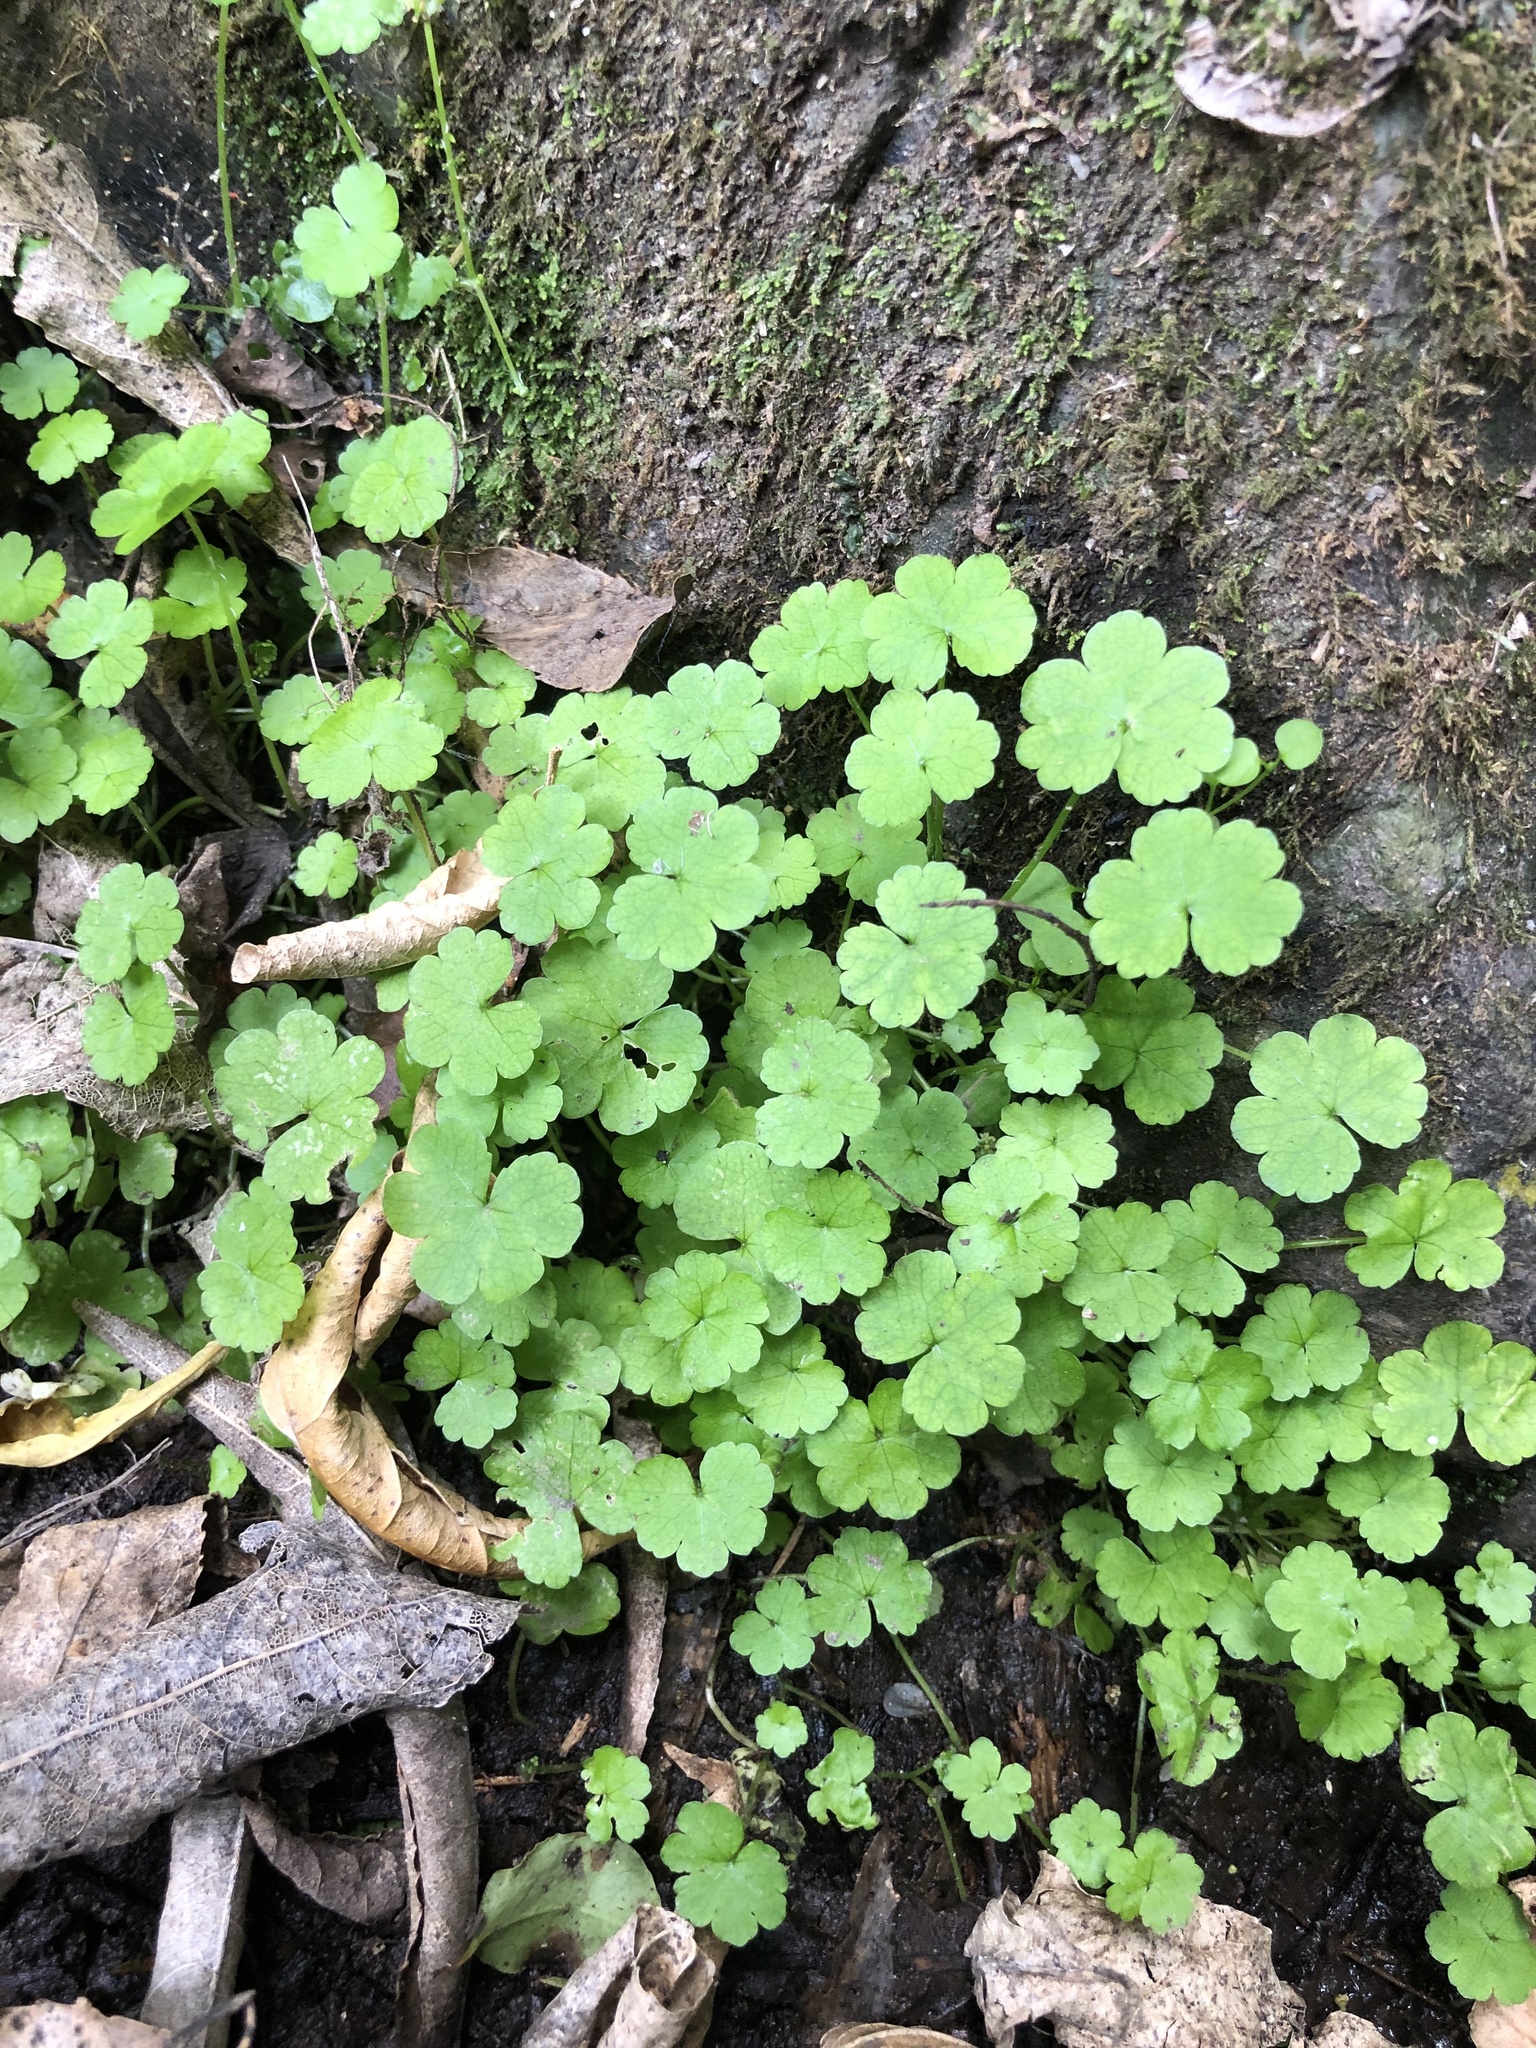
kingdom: Plantae
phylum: Tracheophyta
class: Magnoliopsida
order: Apiales
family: Araliaceae
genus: Hydrocotyle
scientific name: Hydrocotyle heteromeria
